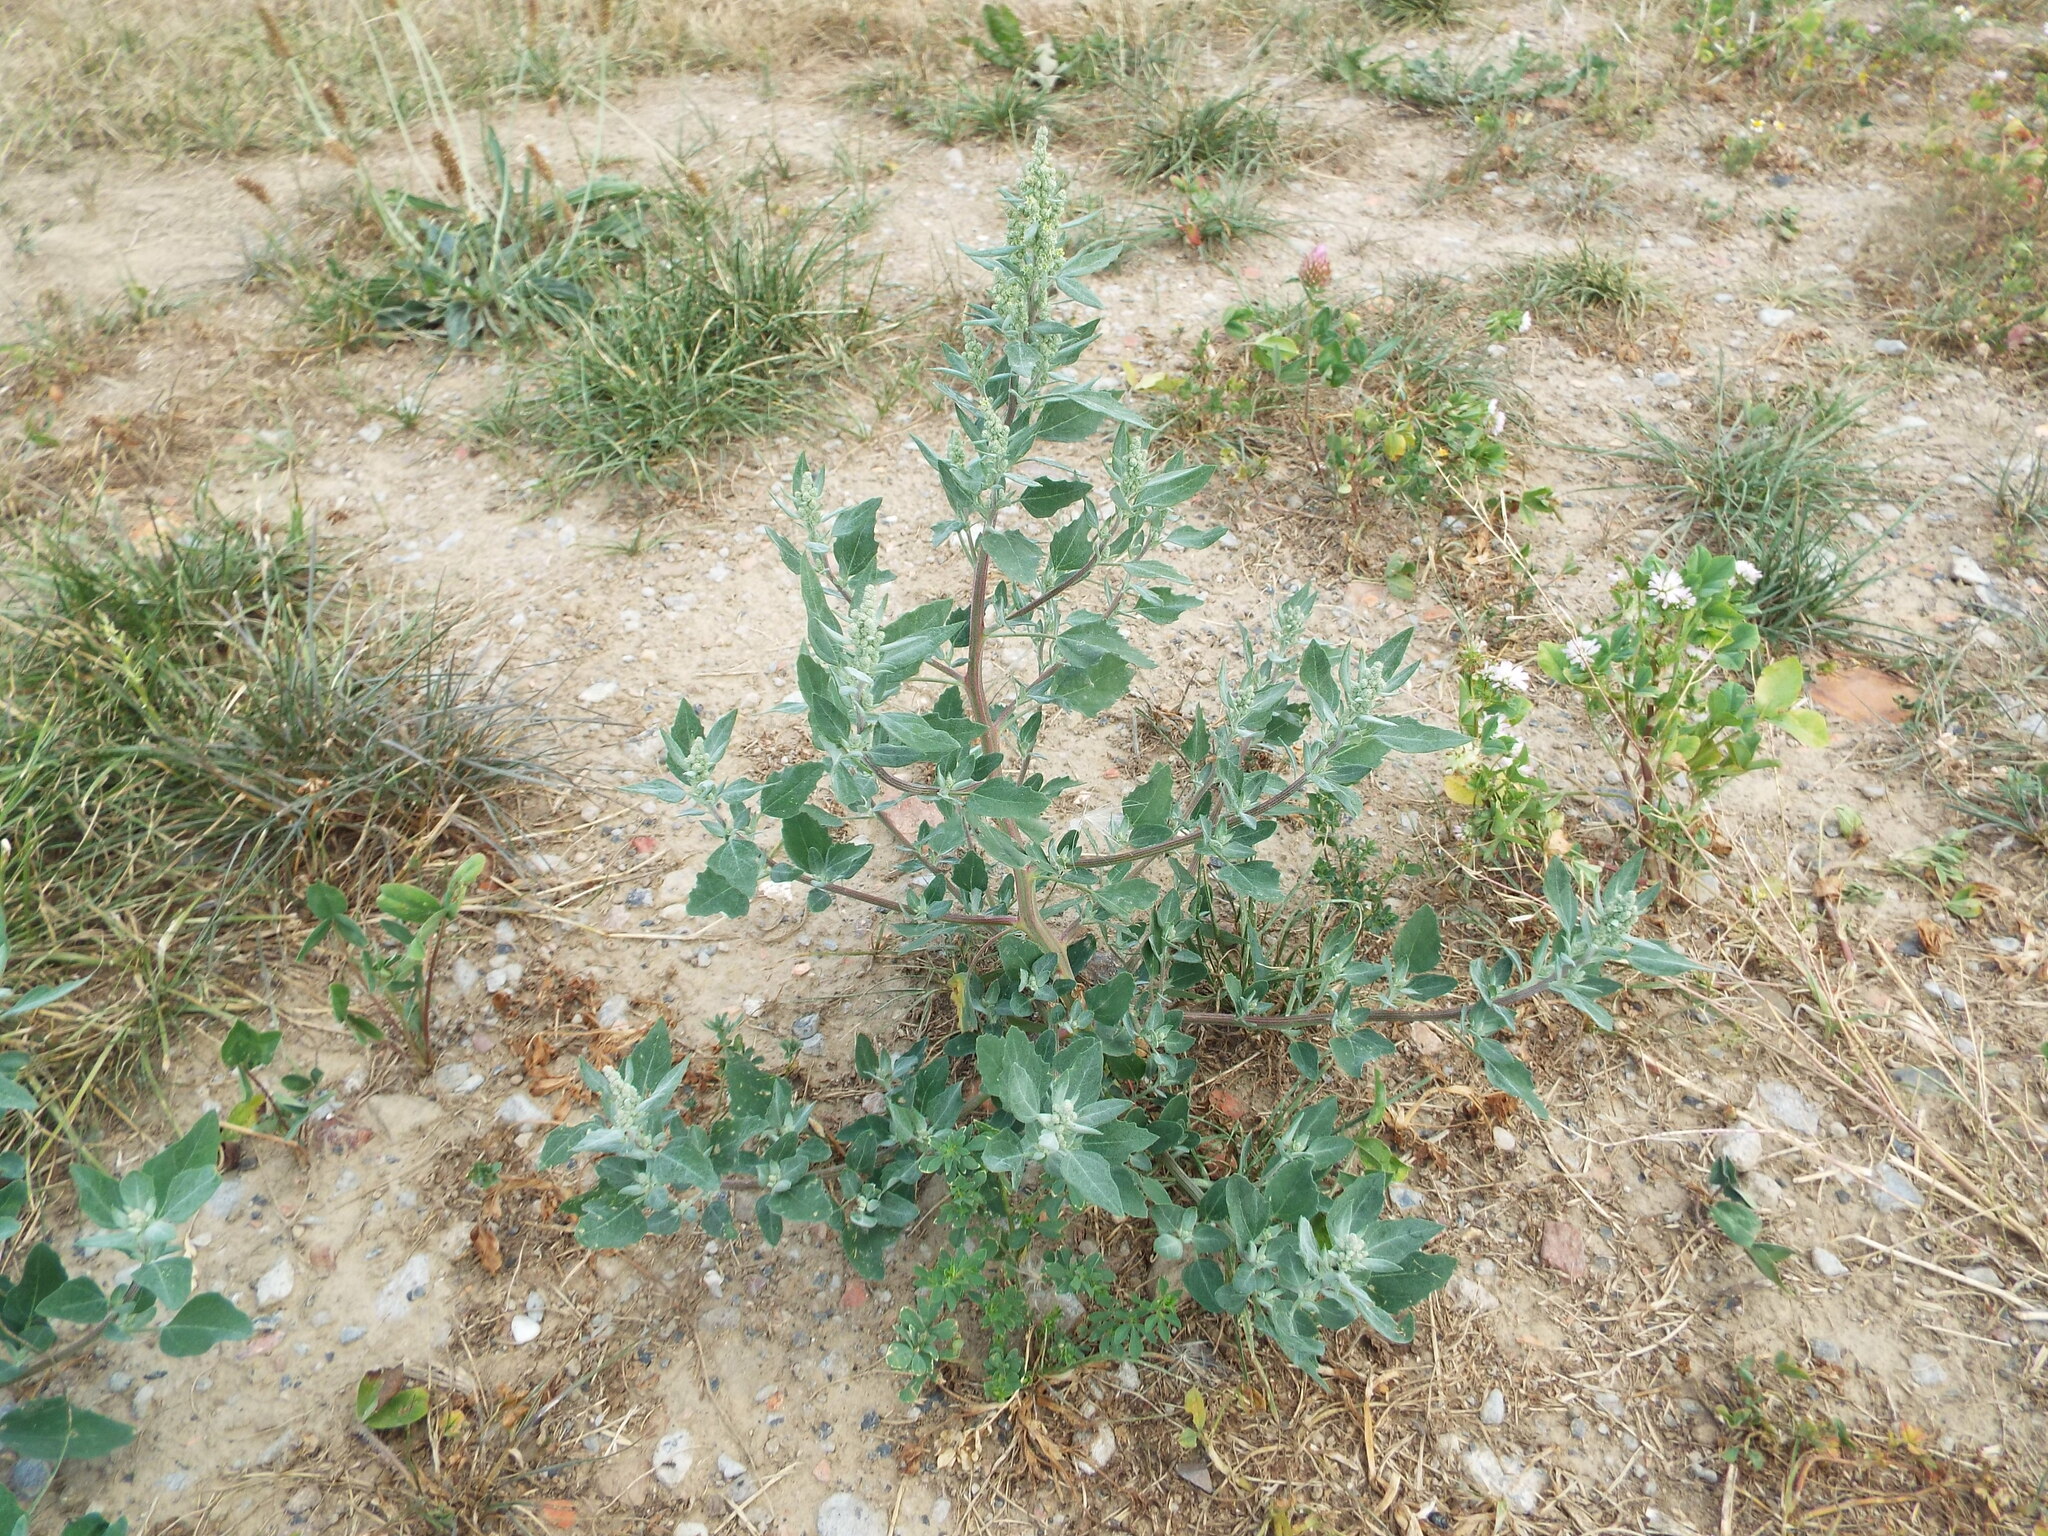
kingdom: Plantae
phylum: Tracheophyta
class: Magnoliopsida
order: Caryophyllales
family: Amaranthaceae
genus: Chenopodium
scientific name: Chenopodium album
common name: Fat-hen
